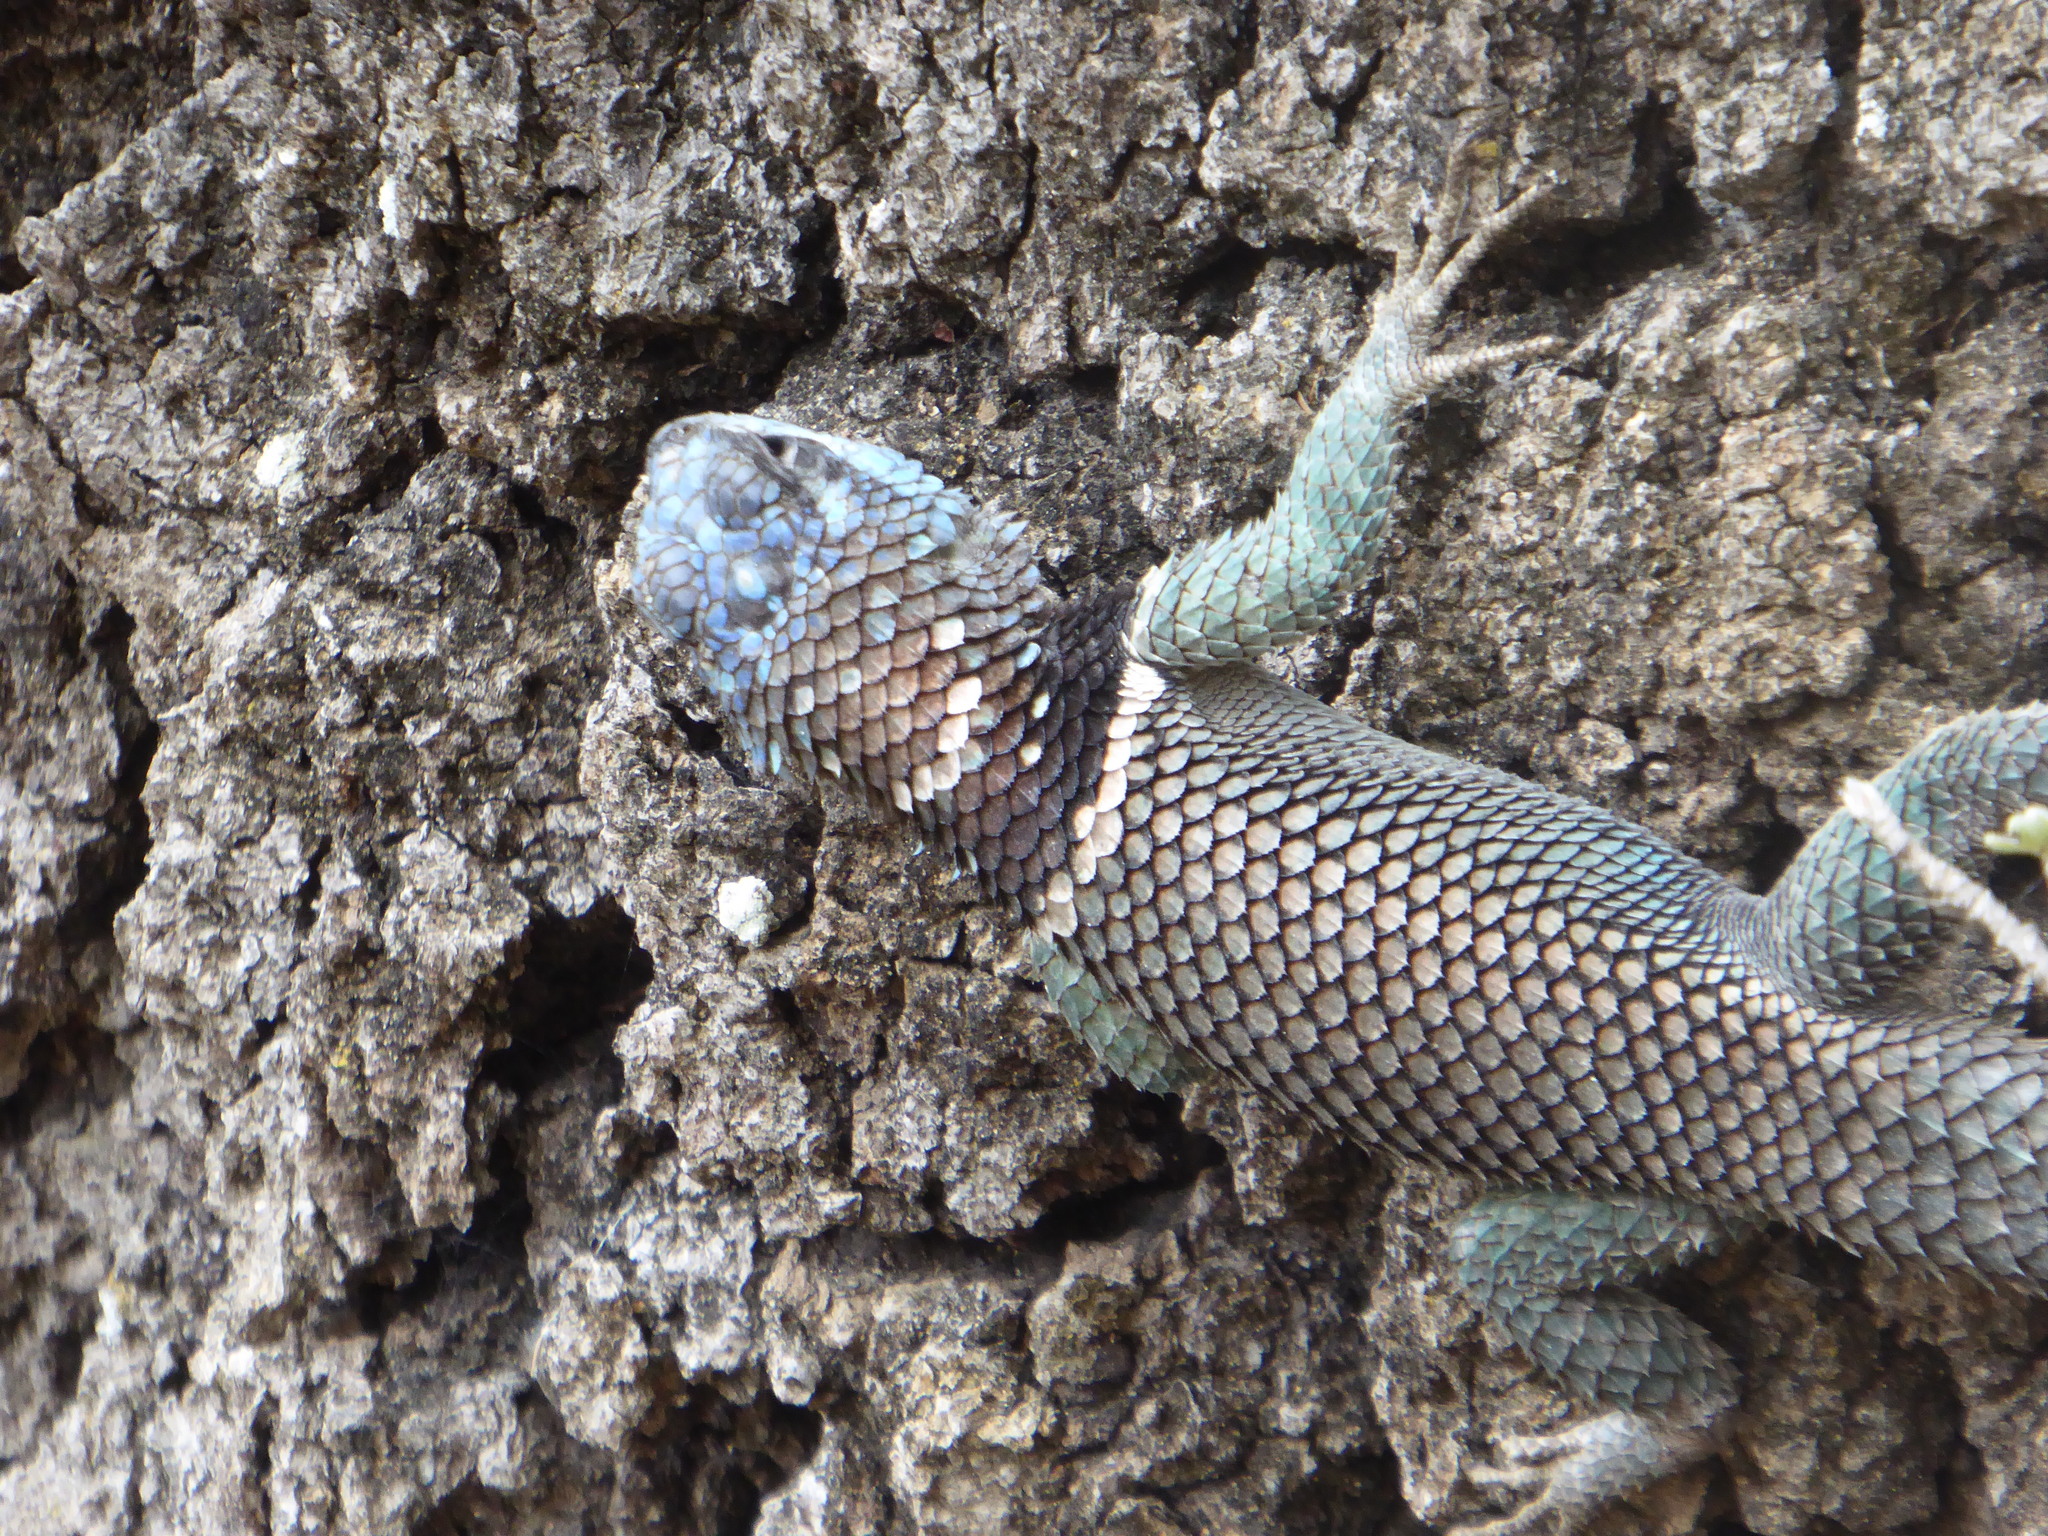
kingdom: Animalia
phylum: Chordata
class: Squamata
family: Phrynosomatidae
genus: Sceloporus
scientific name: Sceloporus aureolus
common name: Eastern cleft spiny lizard
